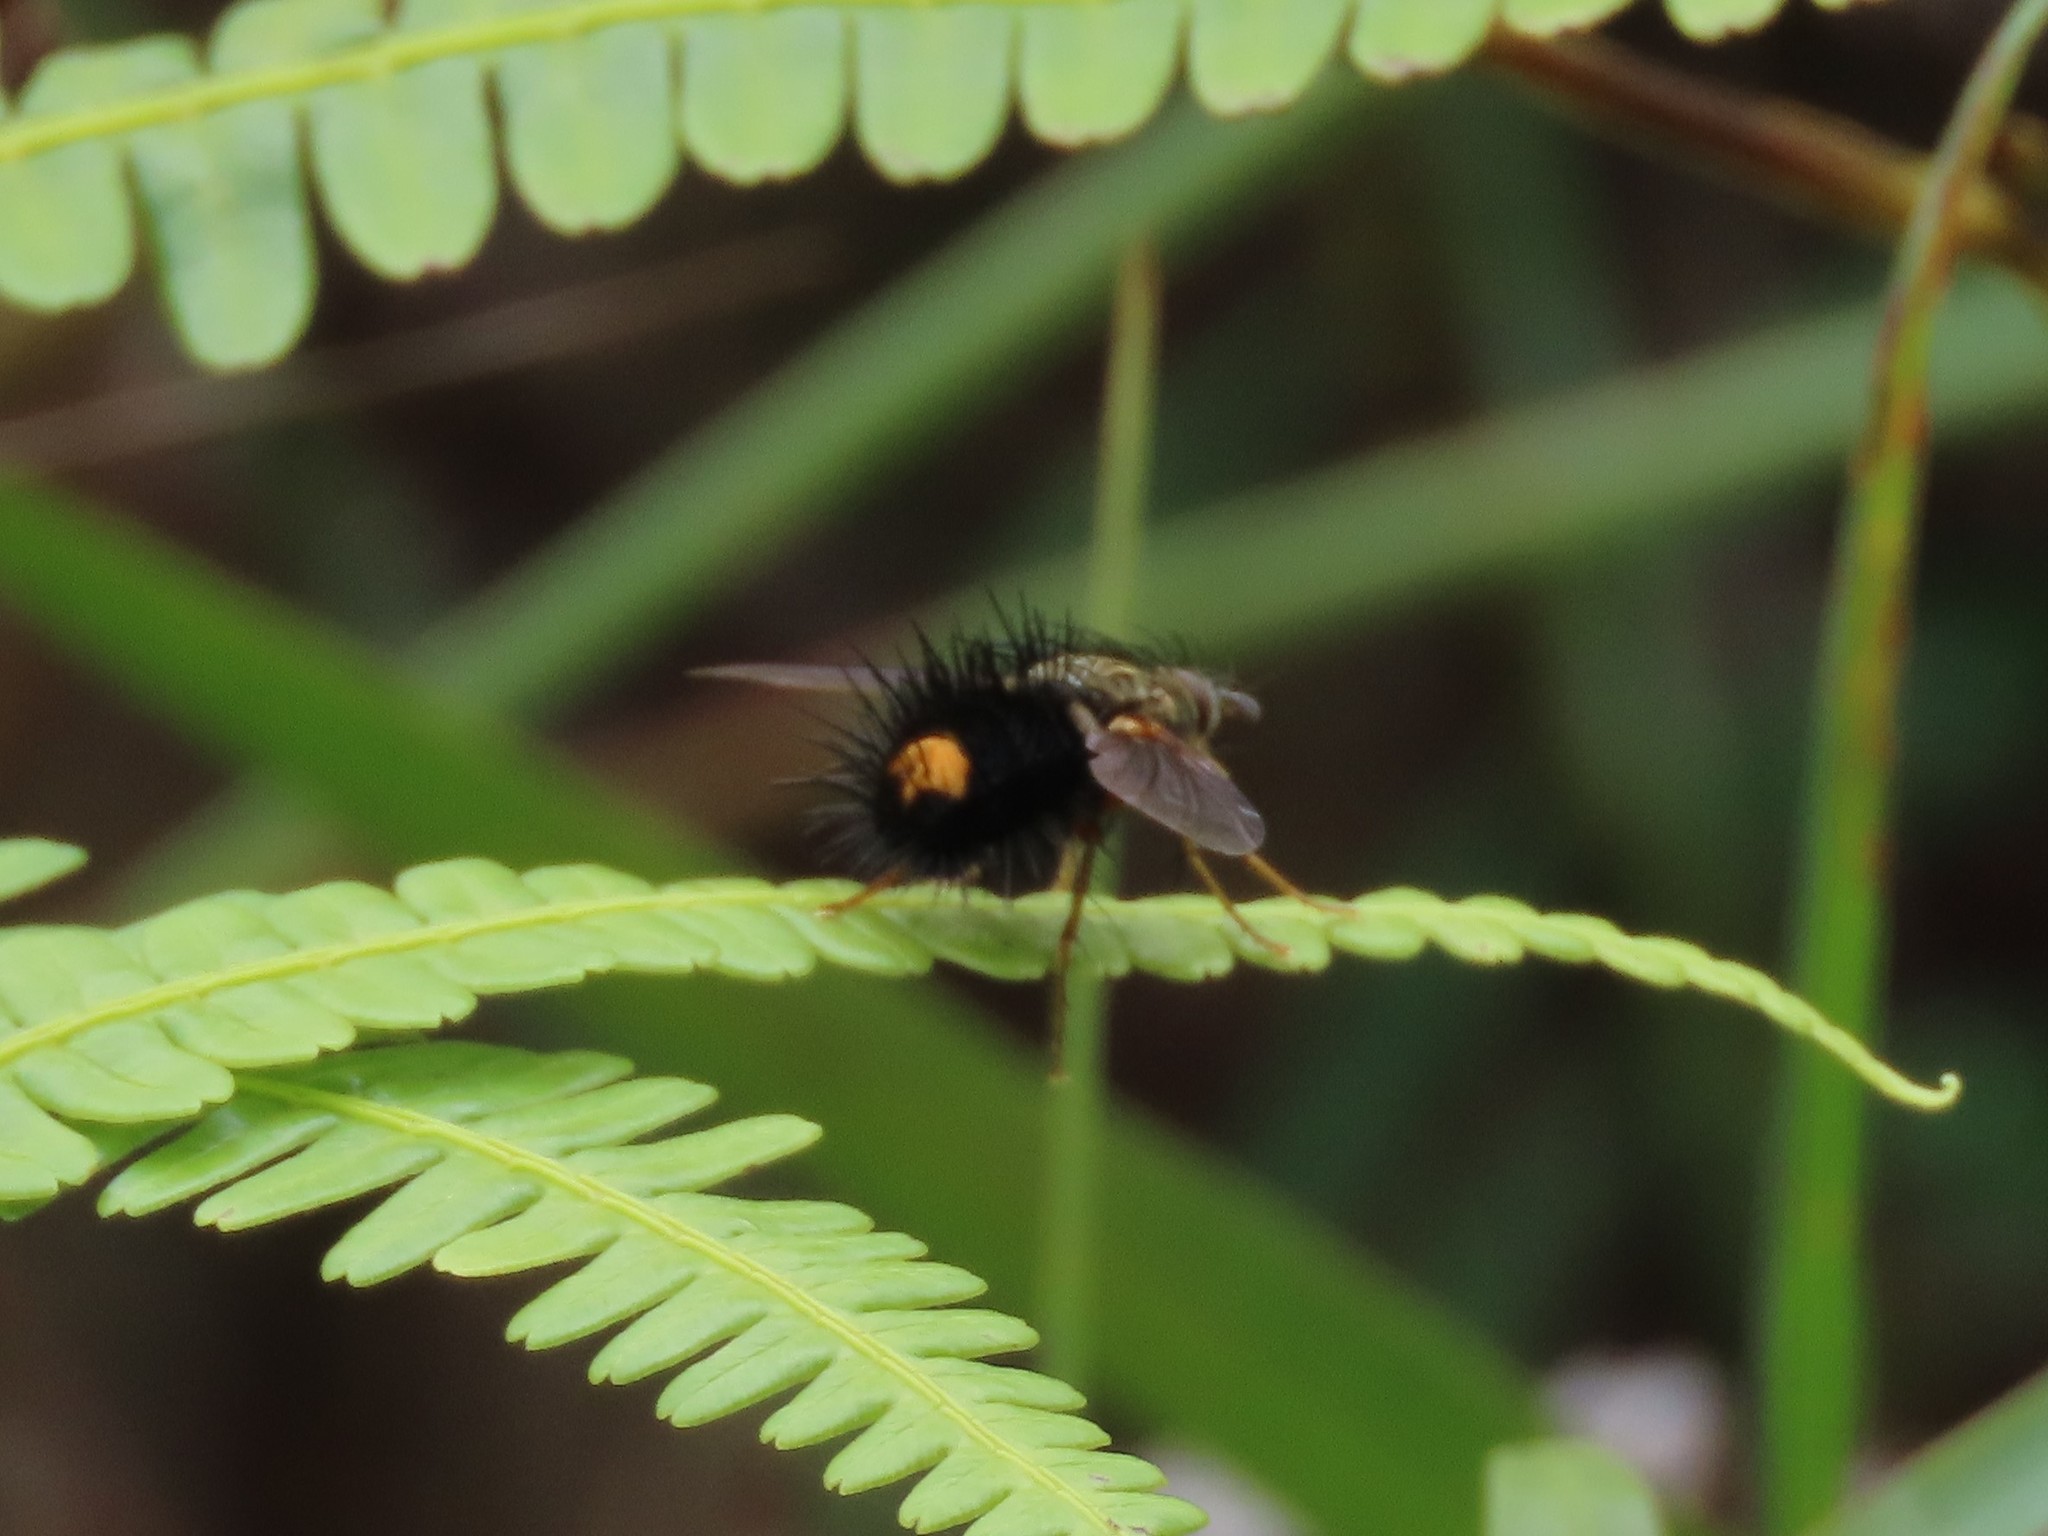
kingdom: Animalia
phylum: Arthropoda
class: Insecta
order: Diptera
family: Tachinidae
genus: Epalpus
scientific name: Epalpus aureus
